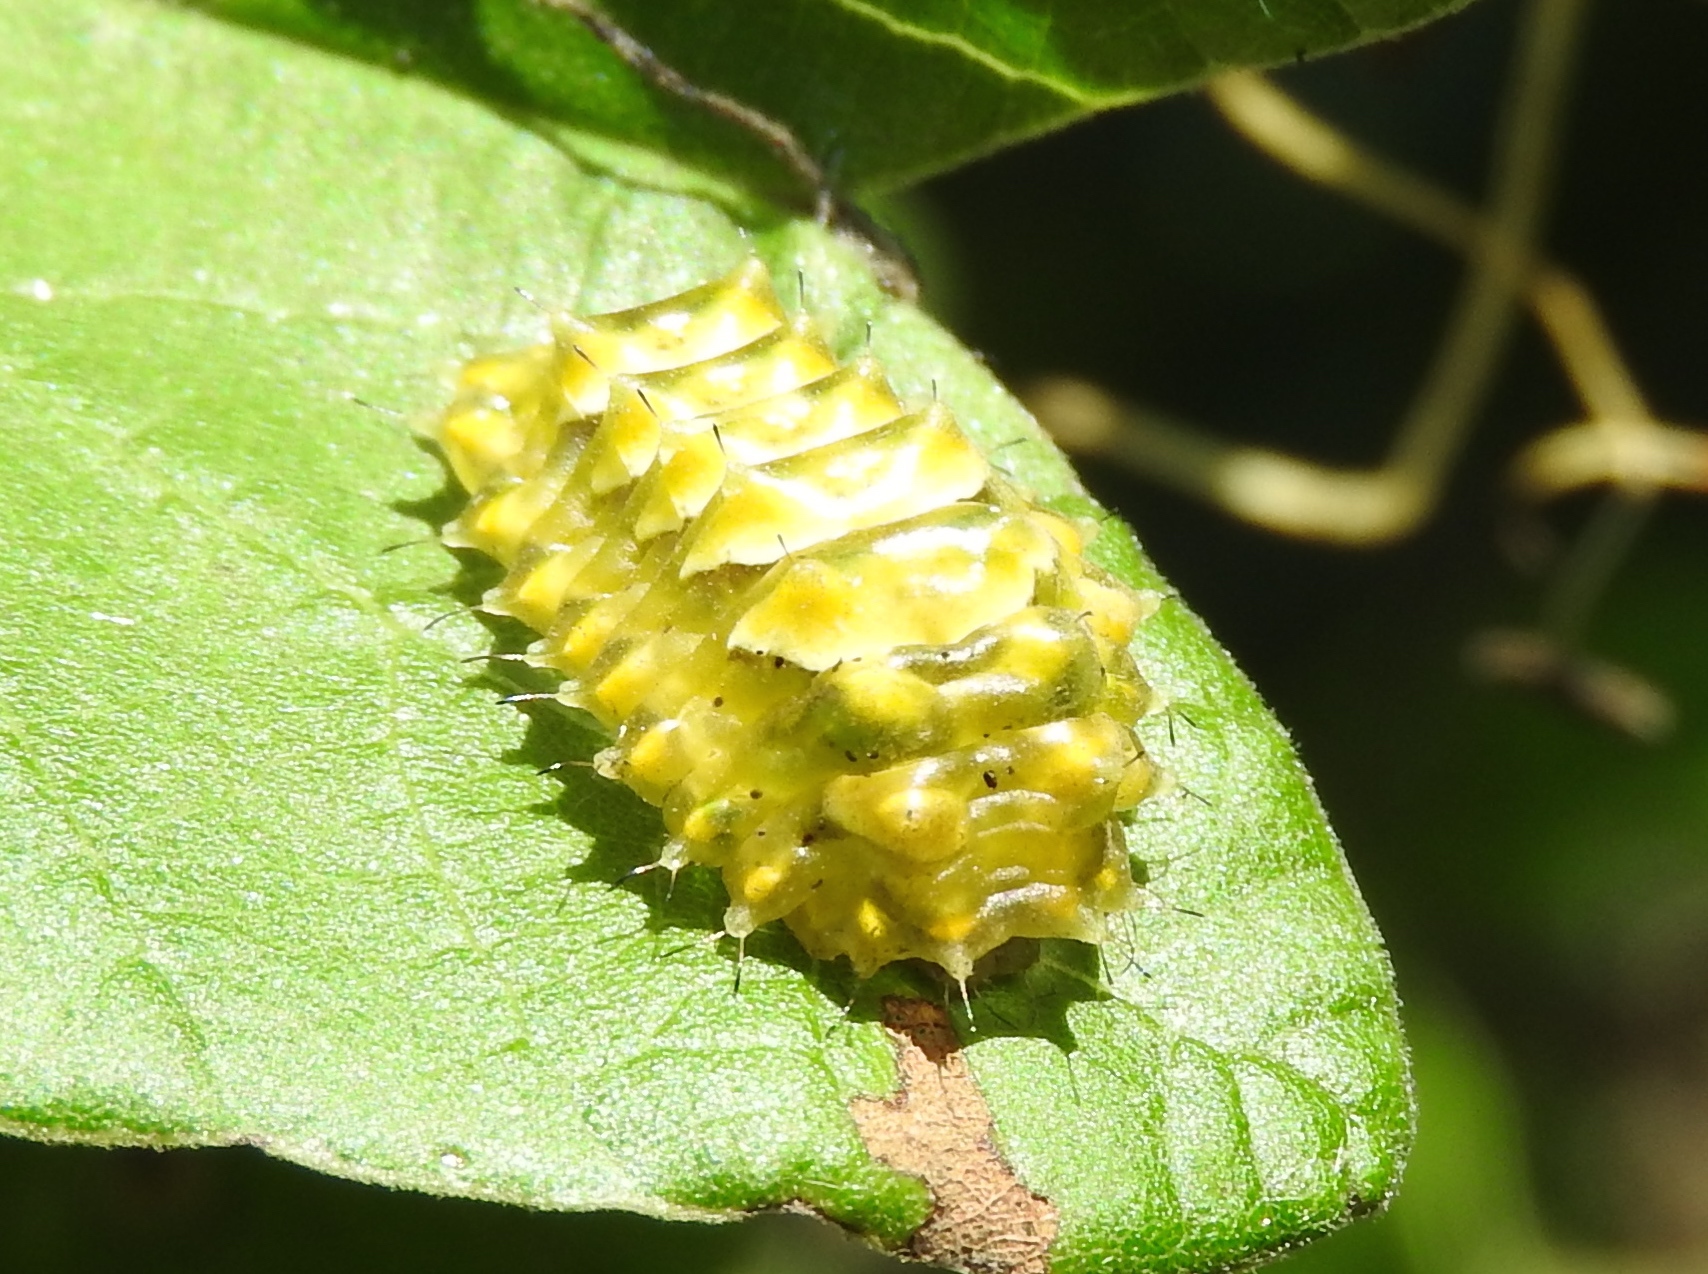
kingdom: Animalia
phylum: Arthropoda
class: Insecta
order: Lepidoptera
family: Lycaenidae
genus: Rekoa
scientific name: Rekoa
